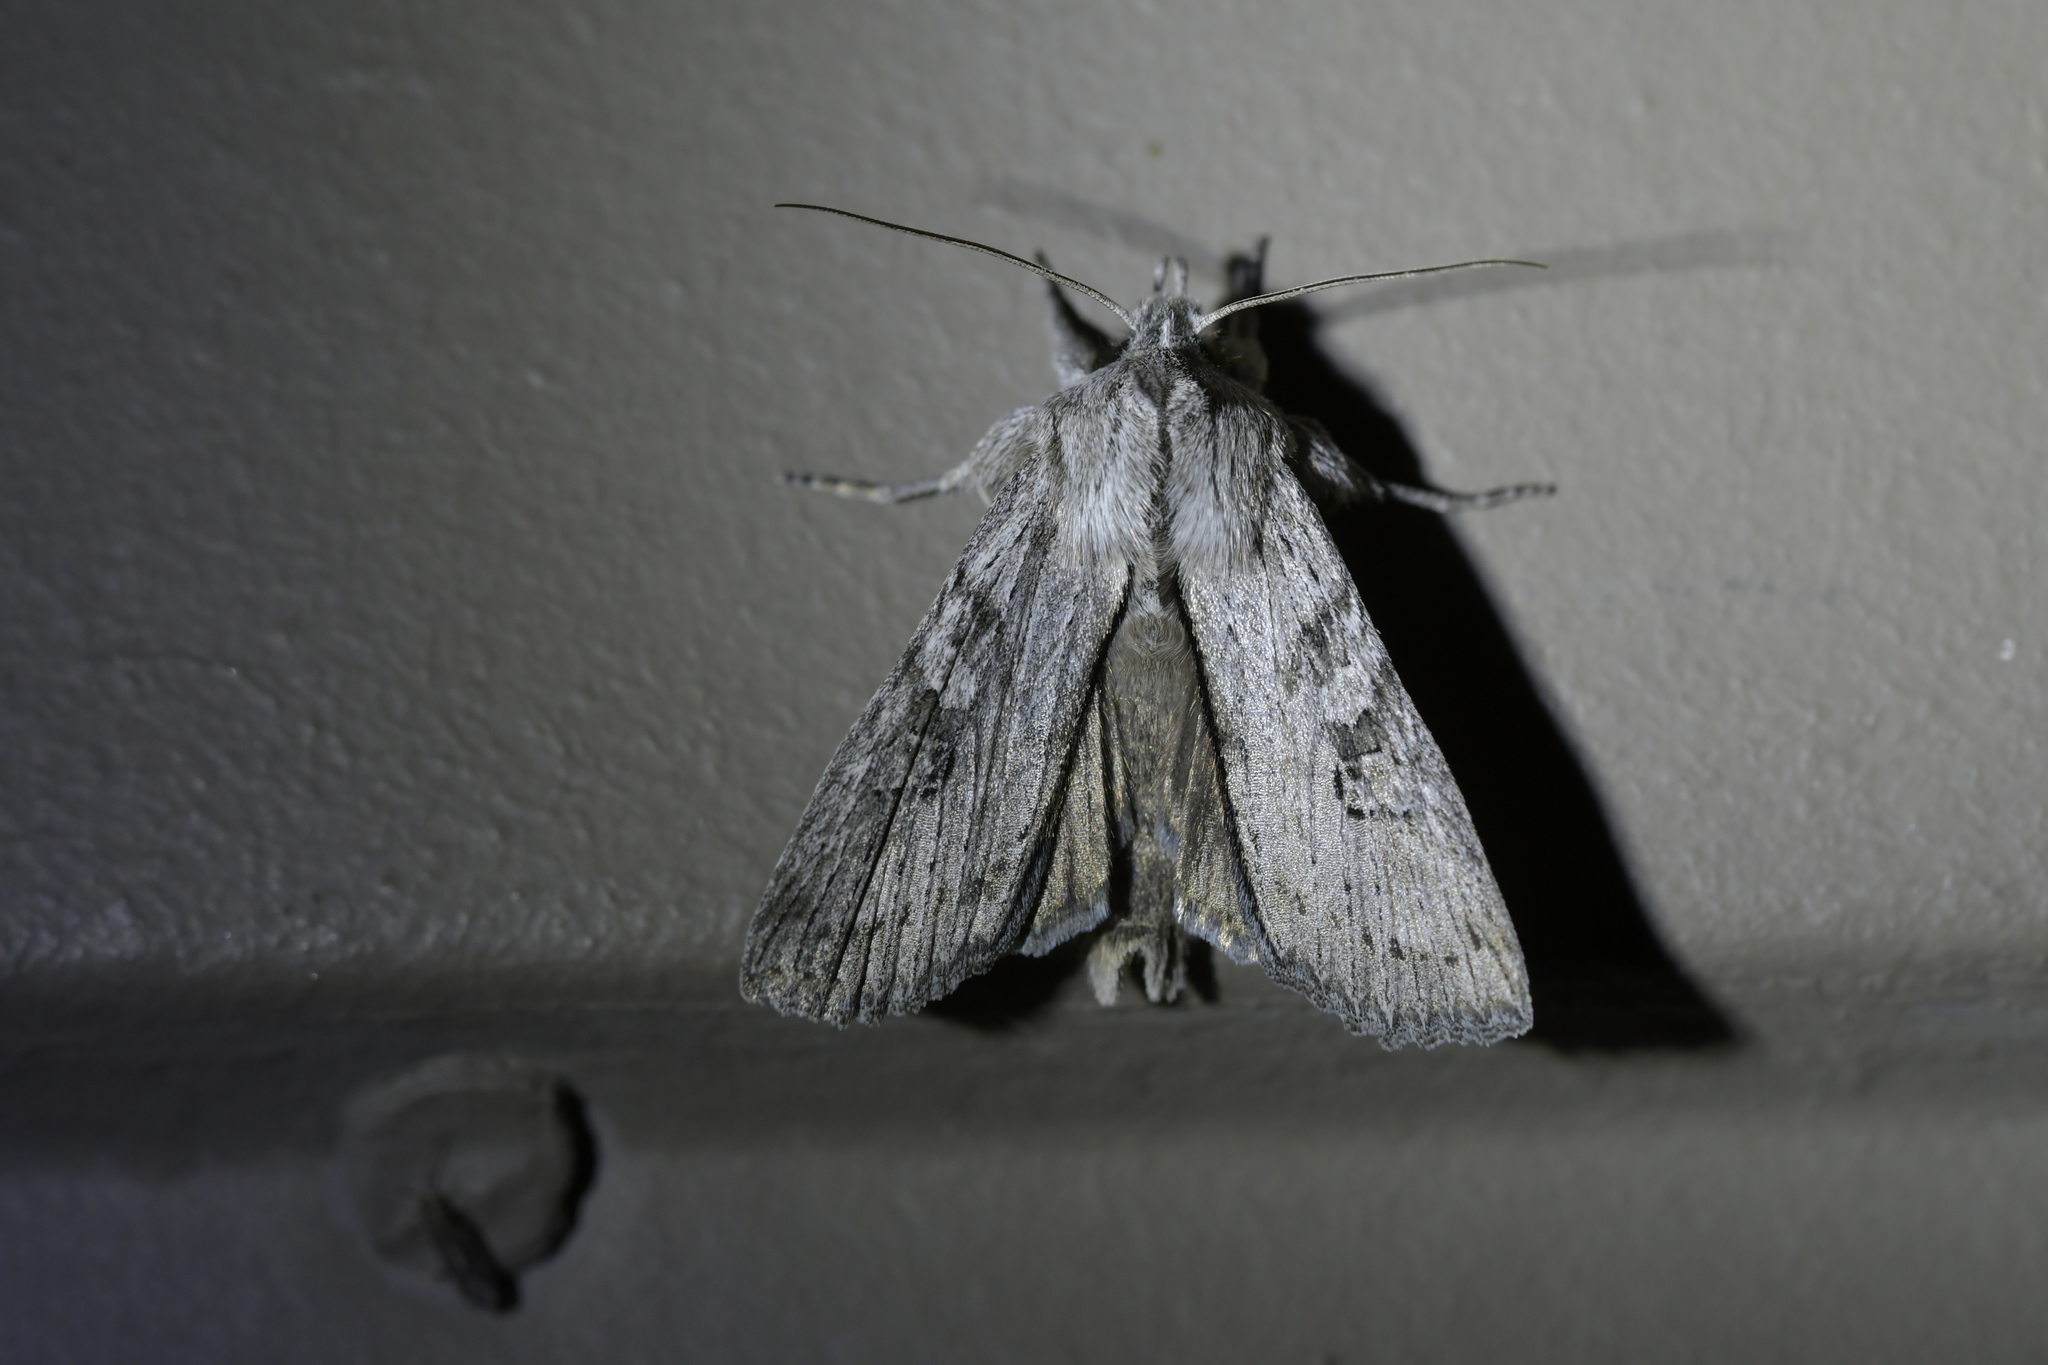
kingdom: Animalia
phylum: Arthropoda
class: Insecta
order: Lepidoptera
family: Noctuidae
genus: Physetica
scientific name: Physetica phricias
